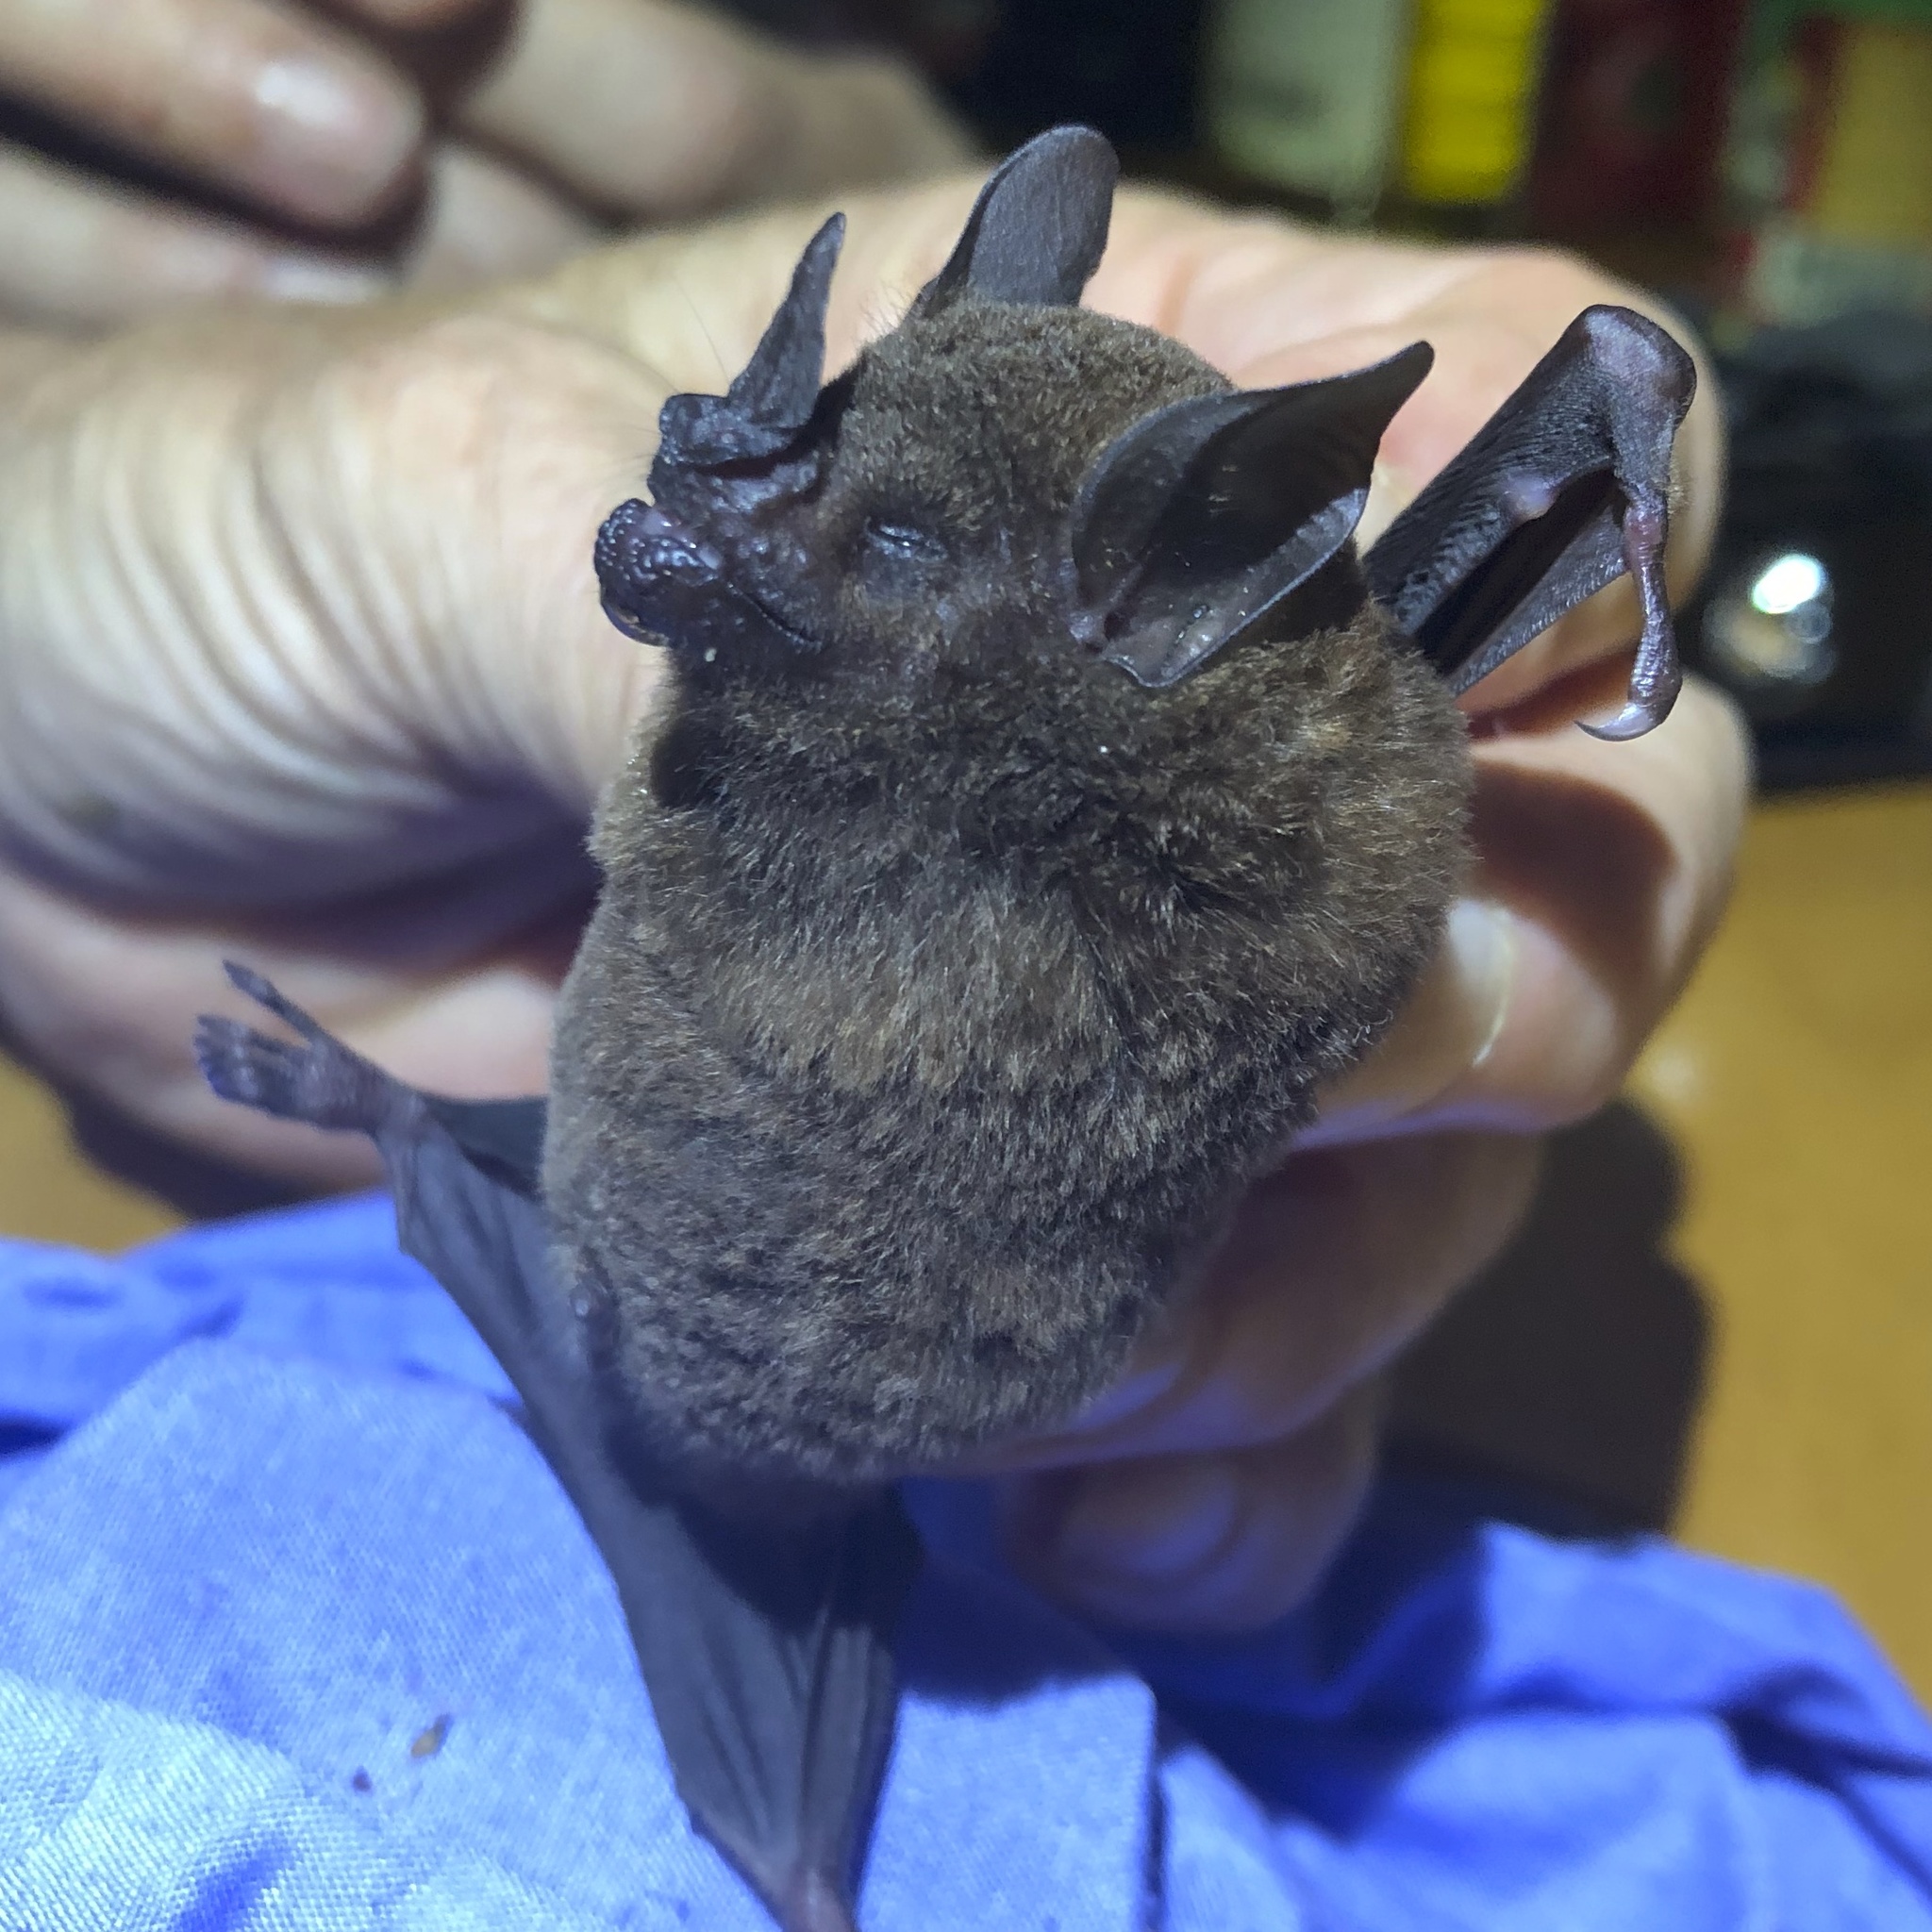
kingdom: Animalia
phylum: Chordata
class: Mammalia
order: Chiroptera
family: Phyllostomidae
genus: Carollia
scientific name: Carollia castanea
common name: Chestnut short-tailed bat
